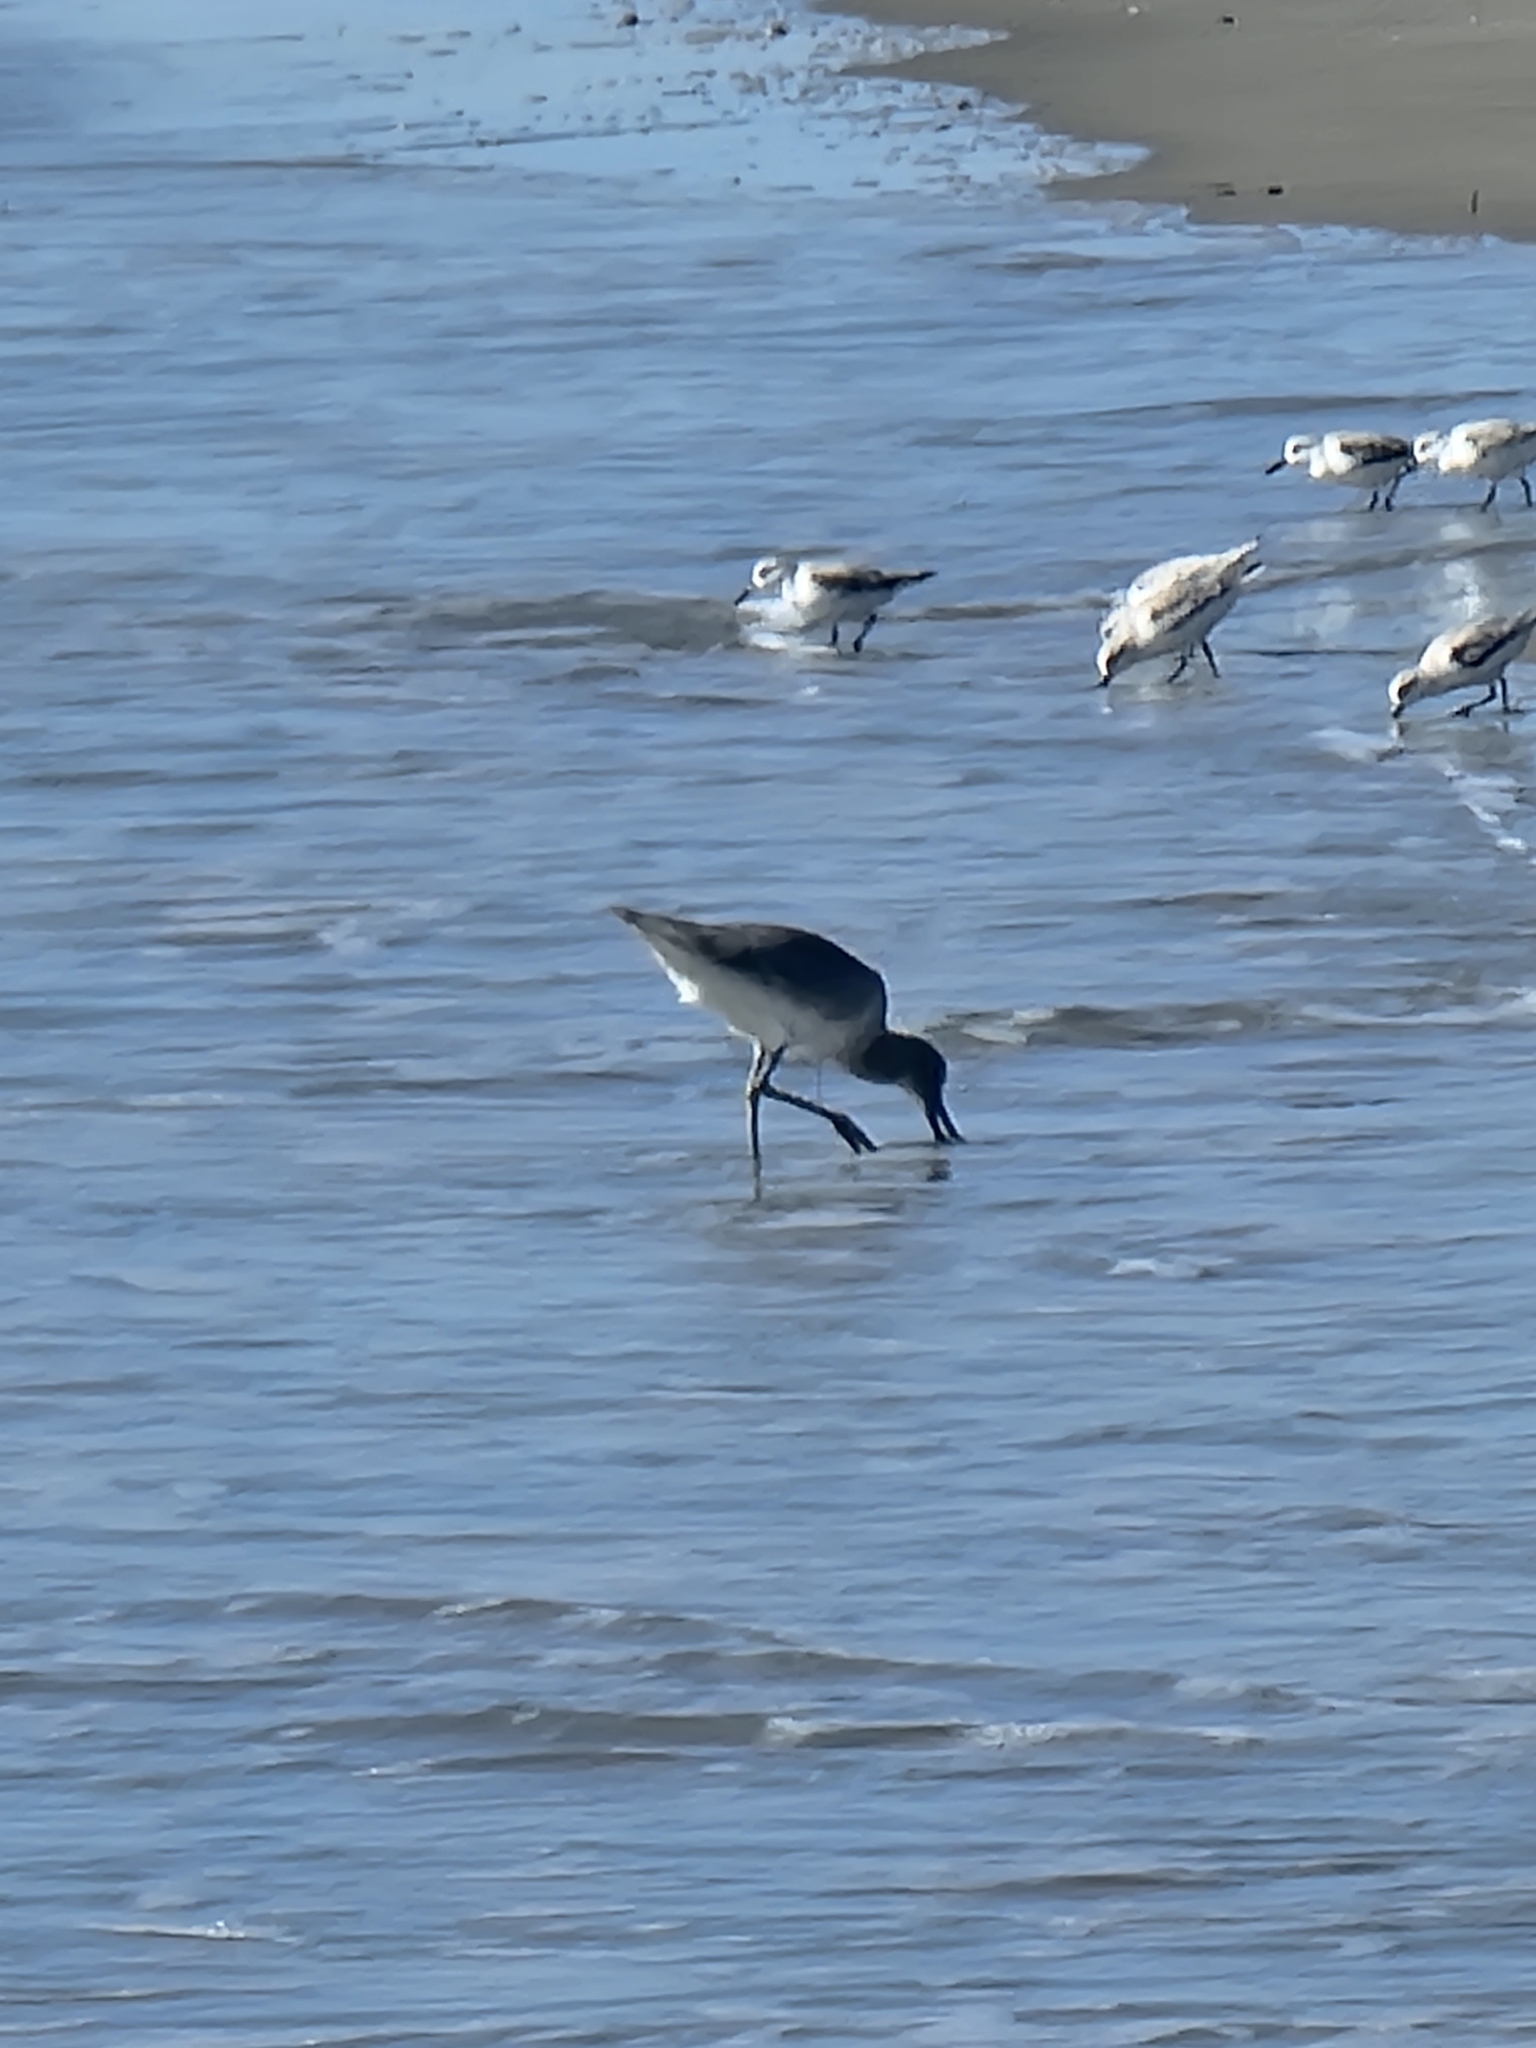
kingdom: Animalia
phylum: Chordata
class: Aves
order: Charadriiformes
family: Scolopacidae
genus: Tringa
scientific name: Tringa semipalmata
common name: Willet
